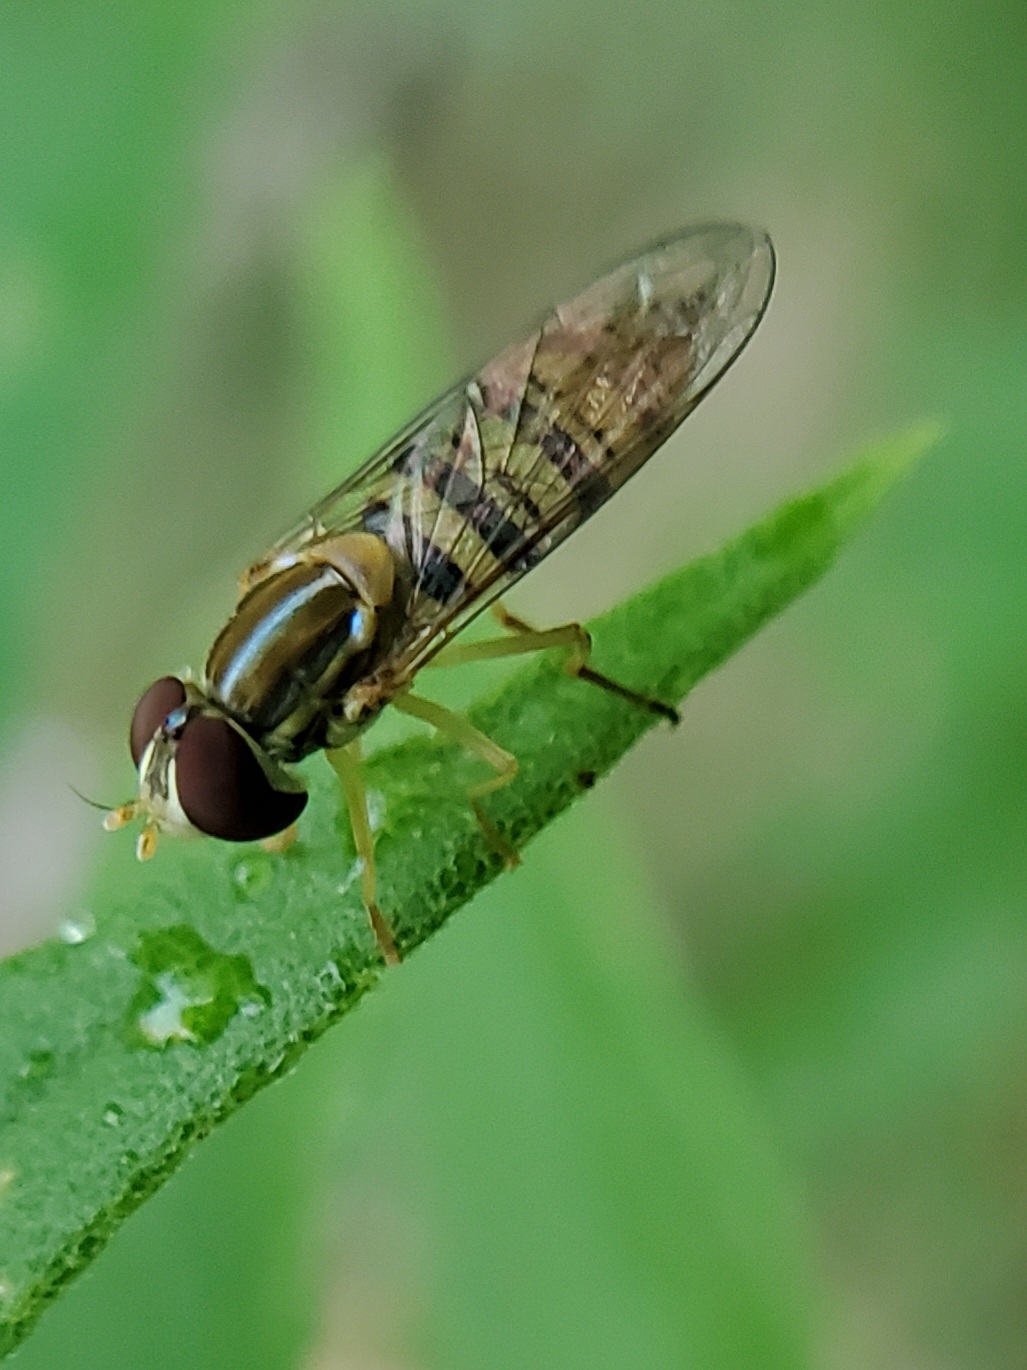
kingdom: Animalia
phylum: Arthropoda
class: Insecta
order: Diptera
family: Syrphidae
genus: Toxomerus
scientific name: Toxomerus politus
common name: Maize calligrapher
